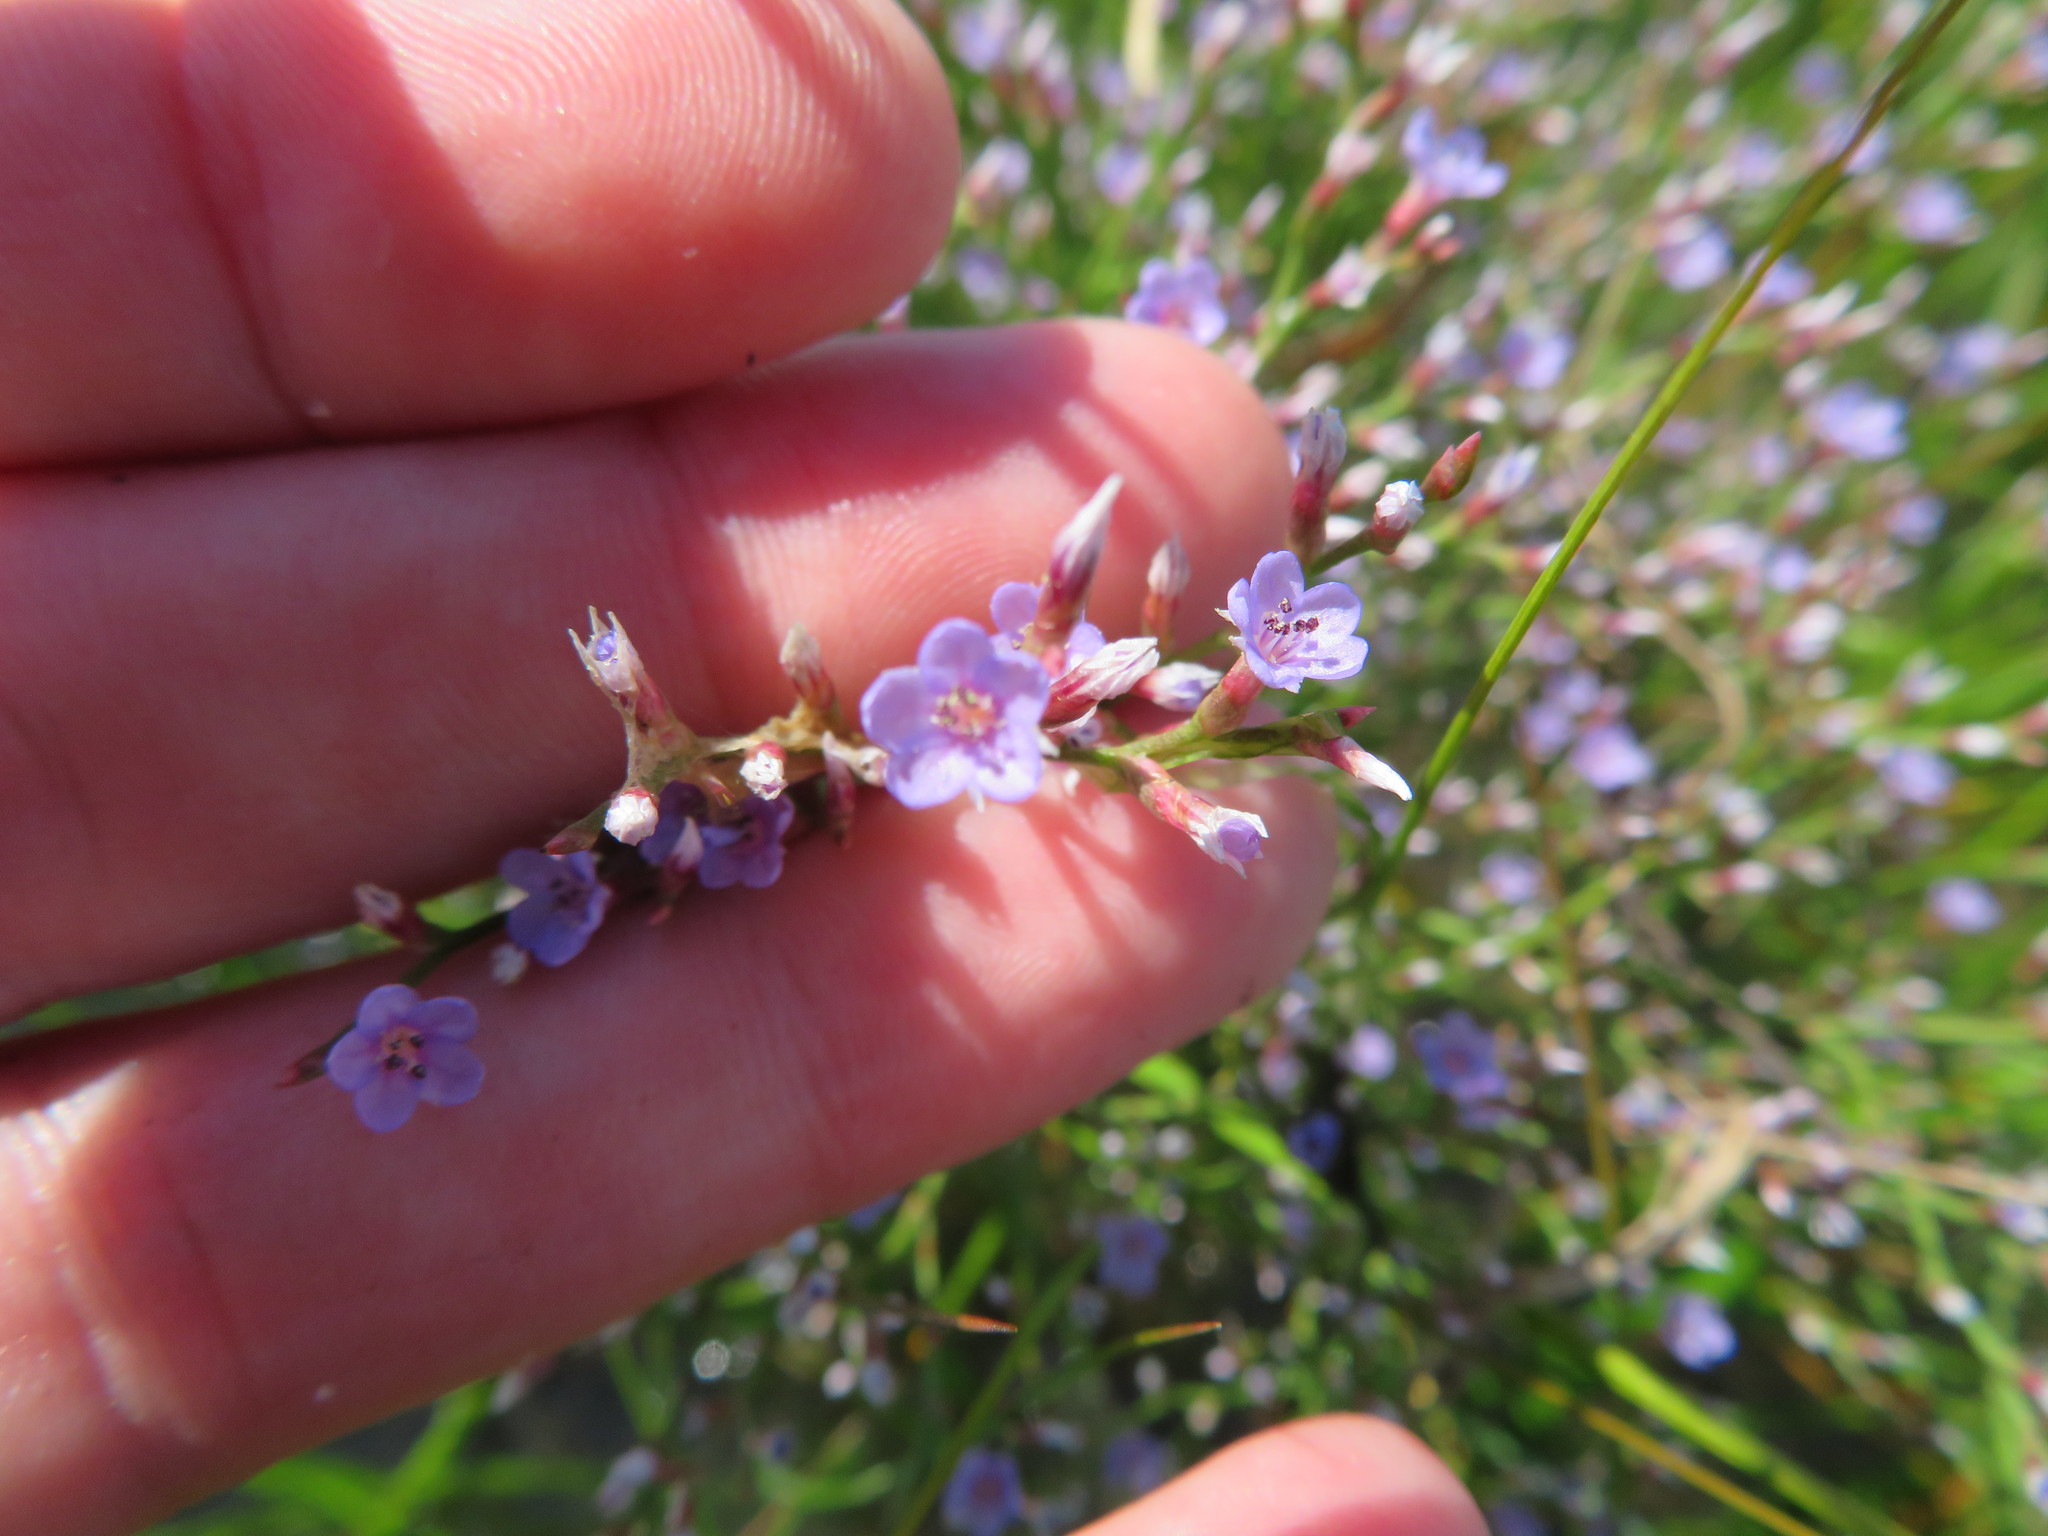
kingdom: Plantae
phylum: Tracheophyta
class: Magnoliopsida
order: Caryophyllales
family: Plumbaginaceae
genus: Limonium
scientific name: Limonium carolinianum
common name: Carolina sea lavender
